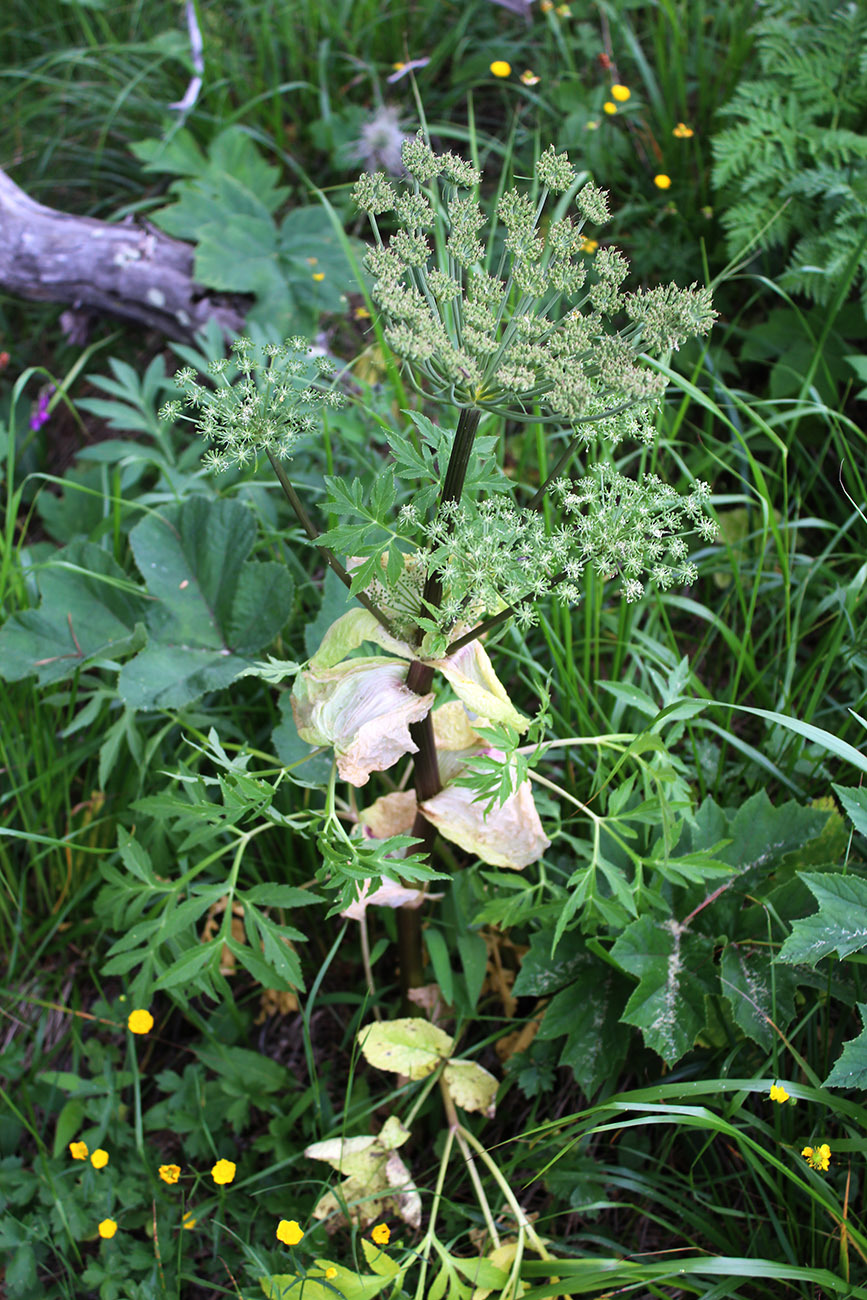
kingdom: Plantae
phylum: Tracheophyta
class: Magnoliopsida
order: Apiales
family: Apiaceae
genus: Agasyllis
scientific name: Agasyllis latifolia
